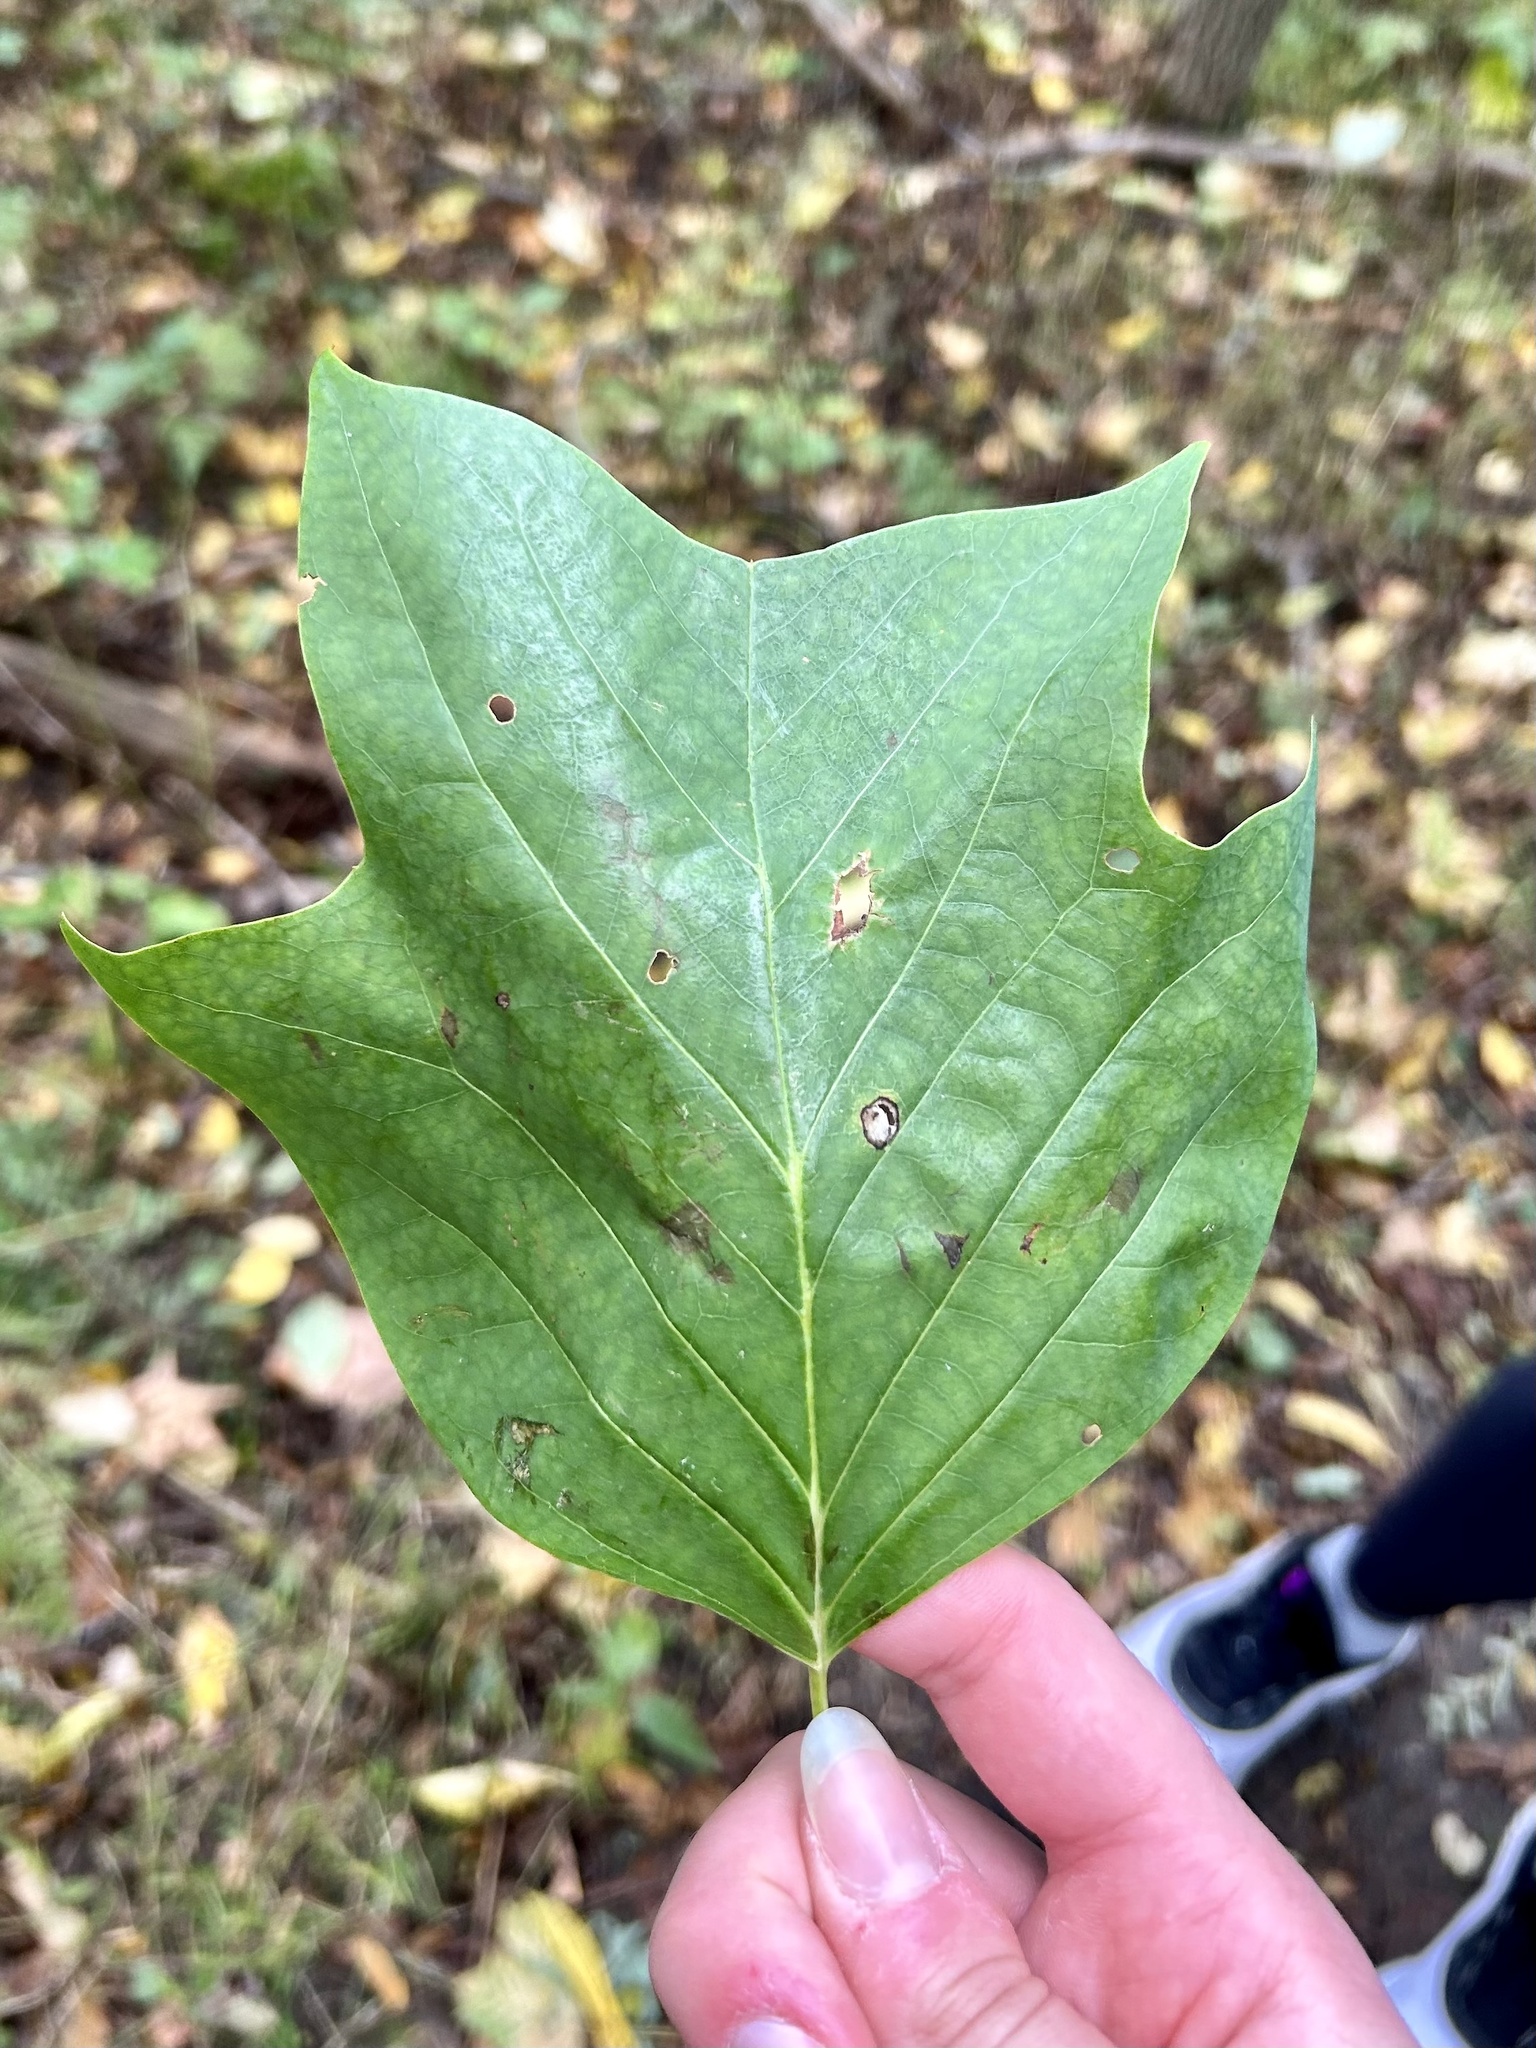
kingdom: Plantae
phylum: Tracheophyta
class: Magnoliopsida
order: Magnoliales
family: Magnoliaceae
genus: Liriodendron
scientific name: Liriodendron tulipifera
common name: Tulip tree
